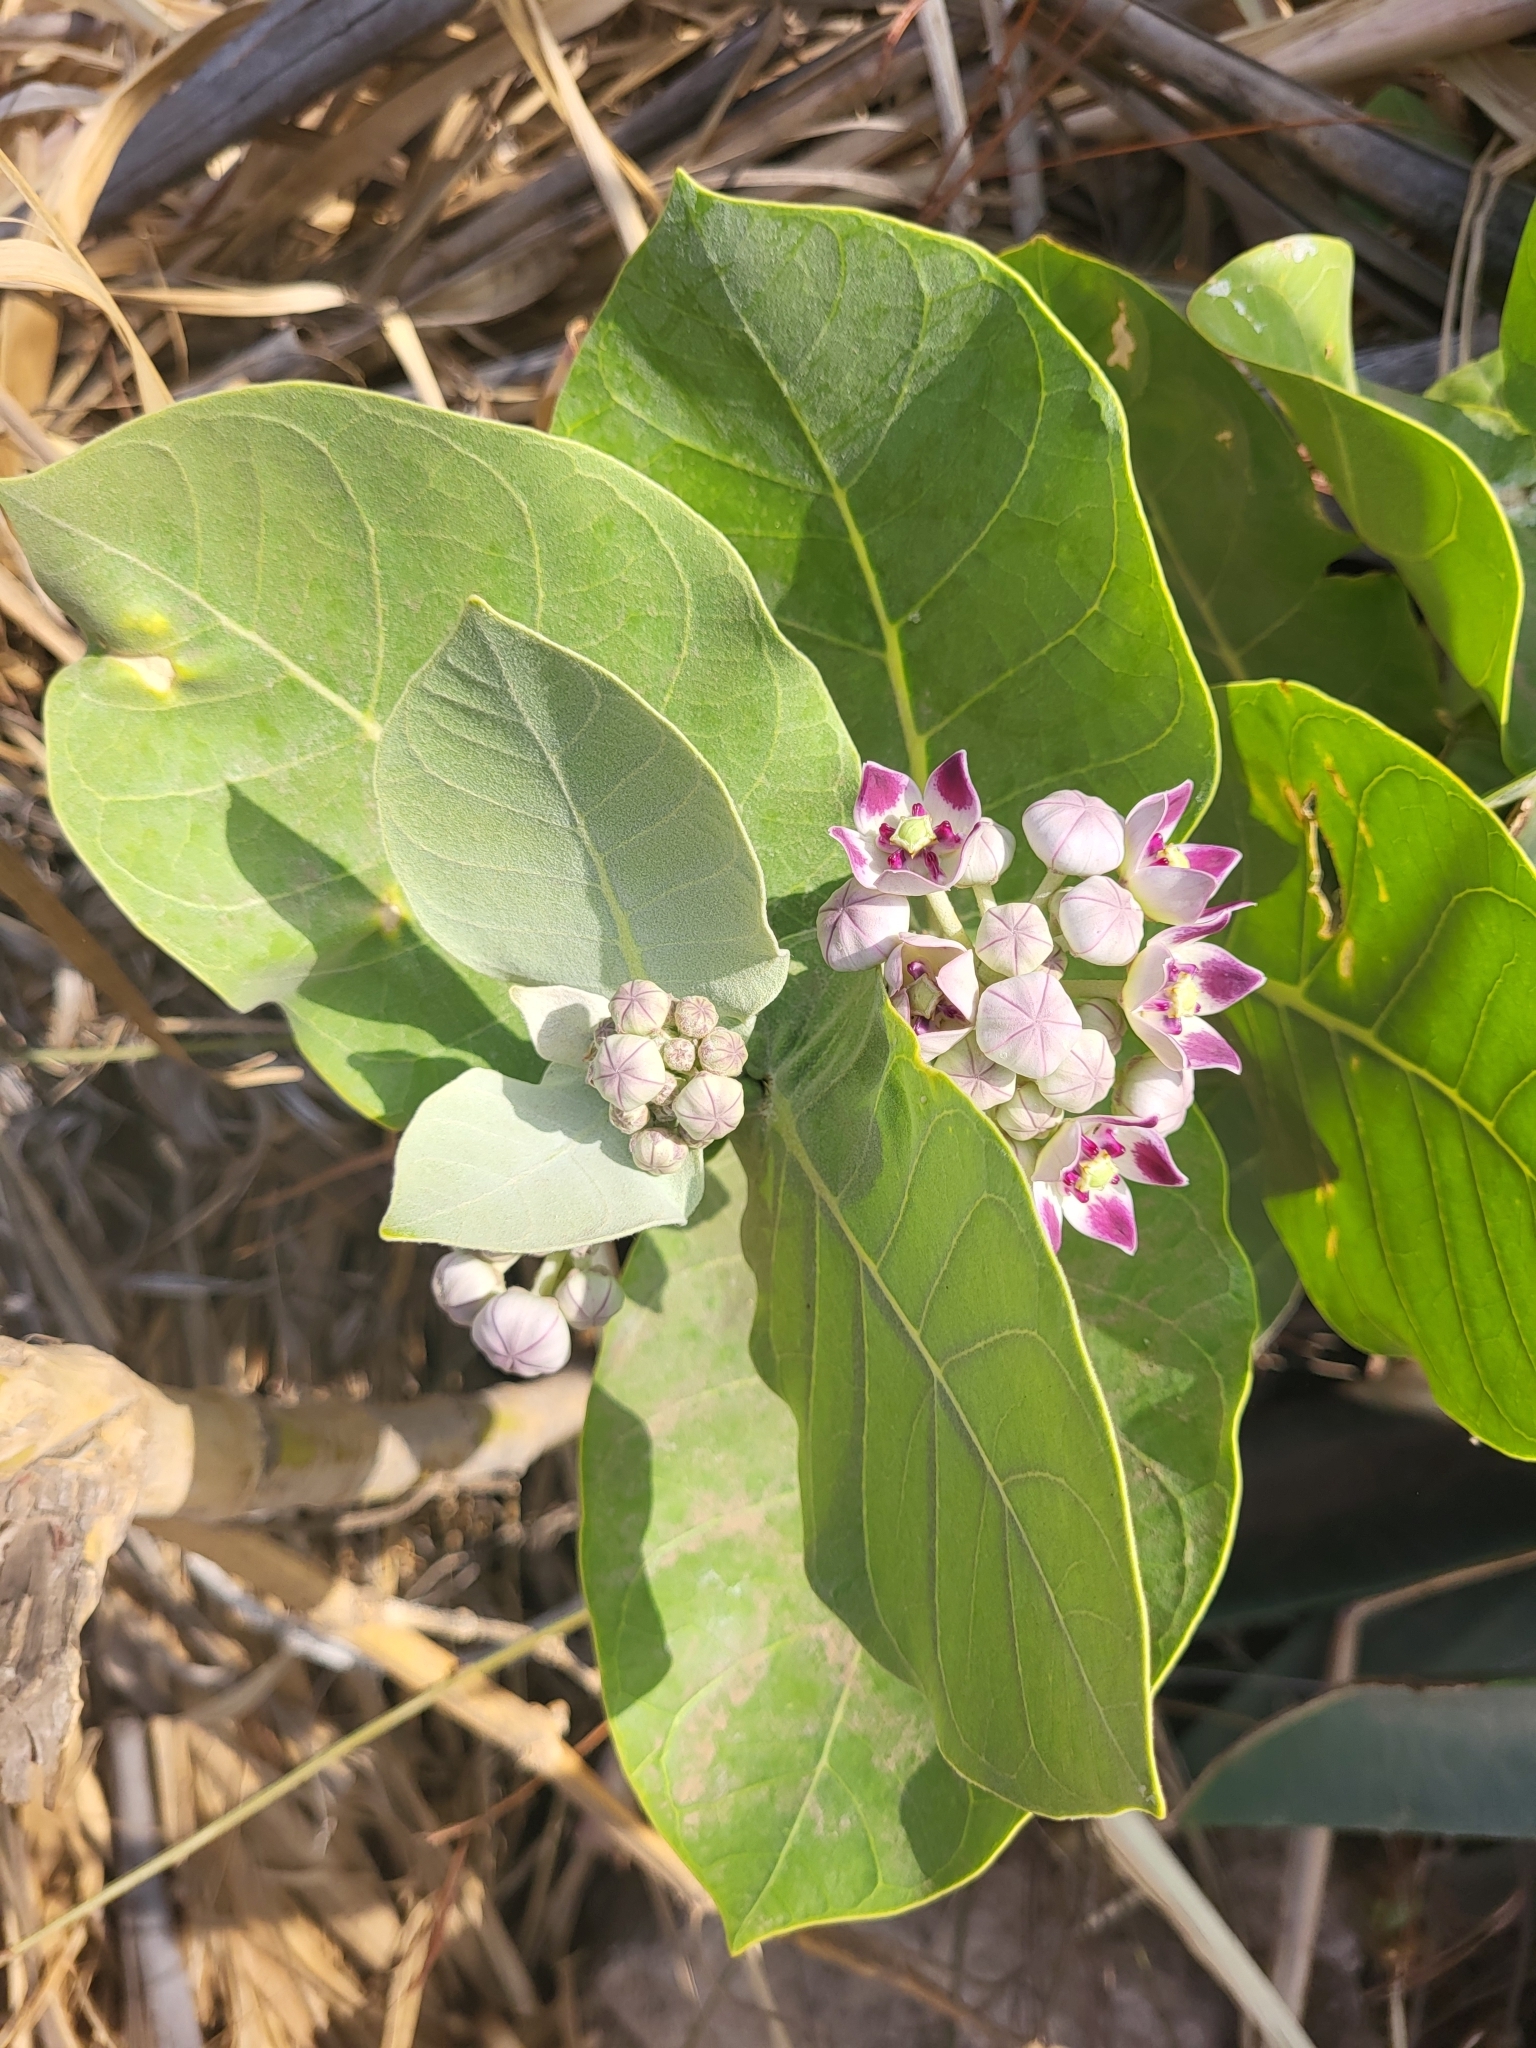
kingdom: Plantae
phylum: Tracheophyta
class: Magnoliopsida
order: Gentianales
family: Apocynaceae
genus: Calotropis
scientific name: Calotropis procera
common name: Roostertree
